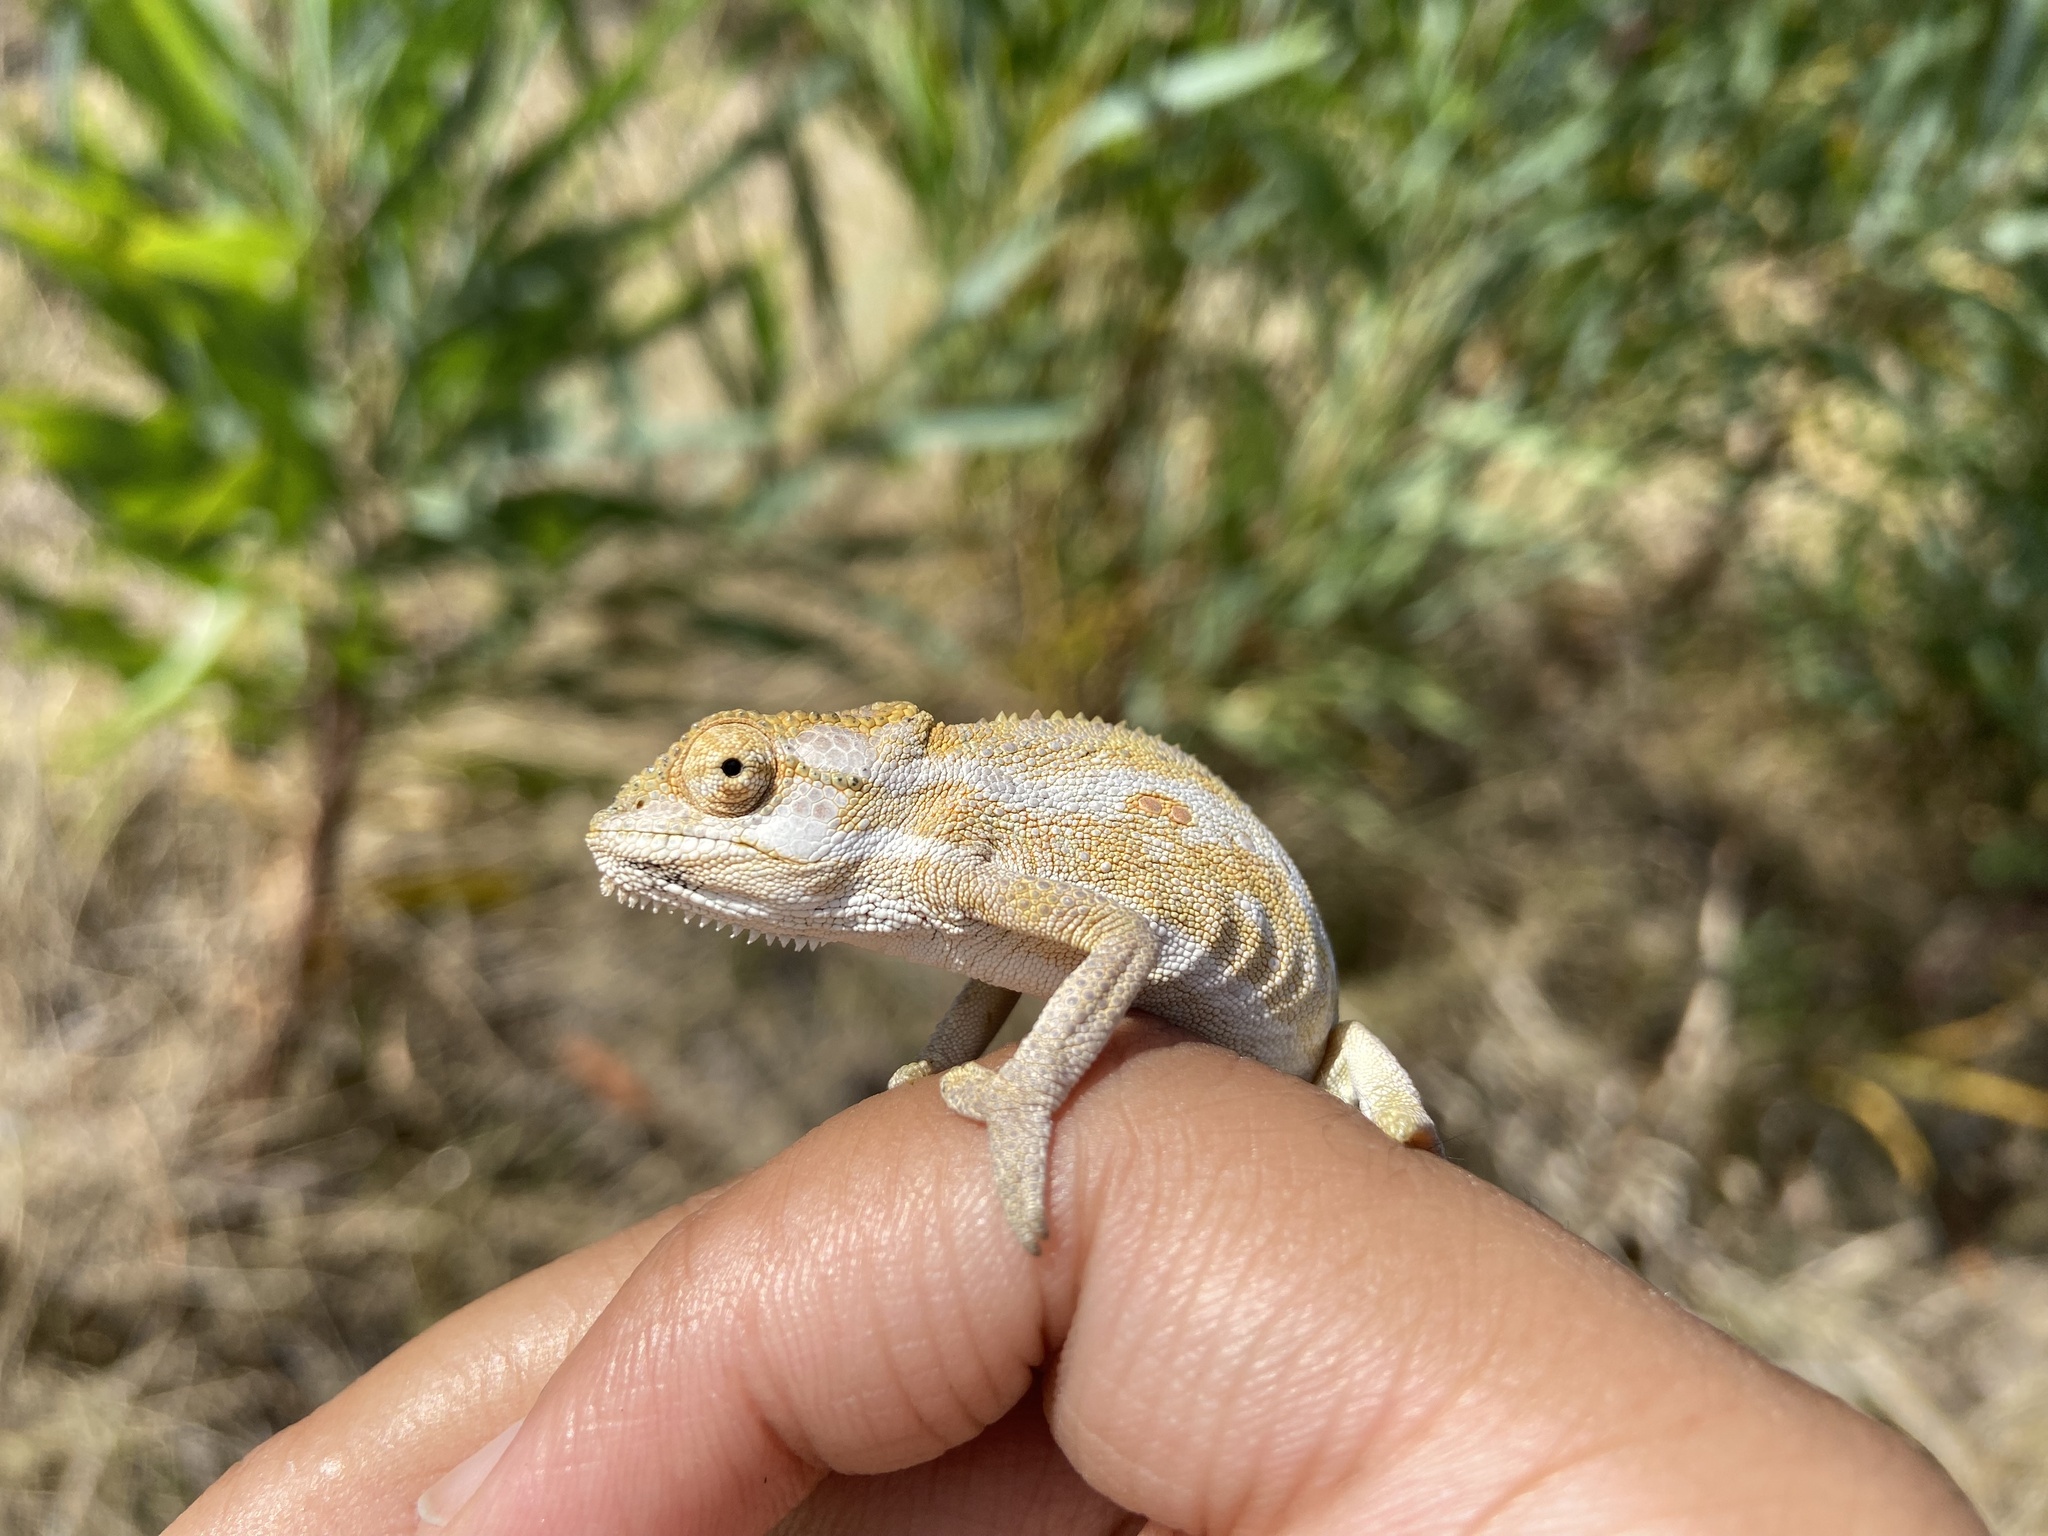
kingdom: Animalia
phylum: Chordata
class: Squamata
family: Chamaeleonidae
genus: Bradypodion
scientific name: Bradypodion pumilum
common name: Cape dwarf chameleon
